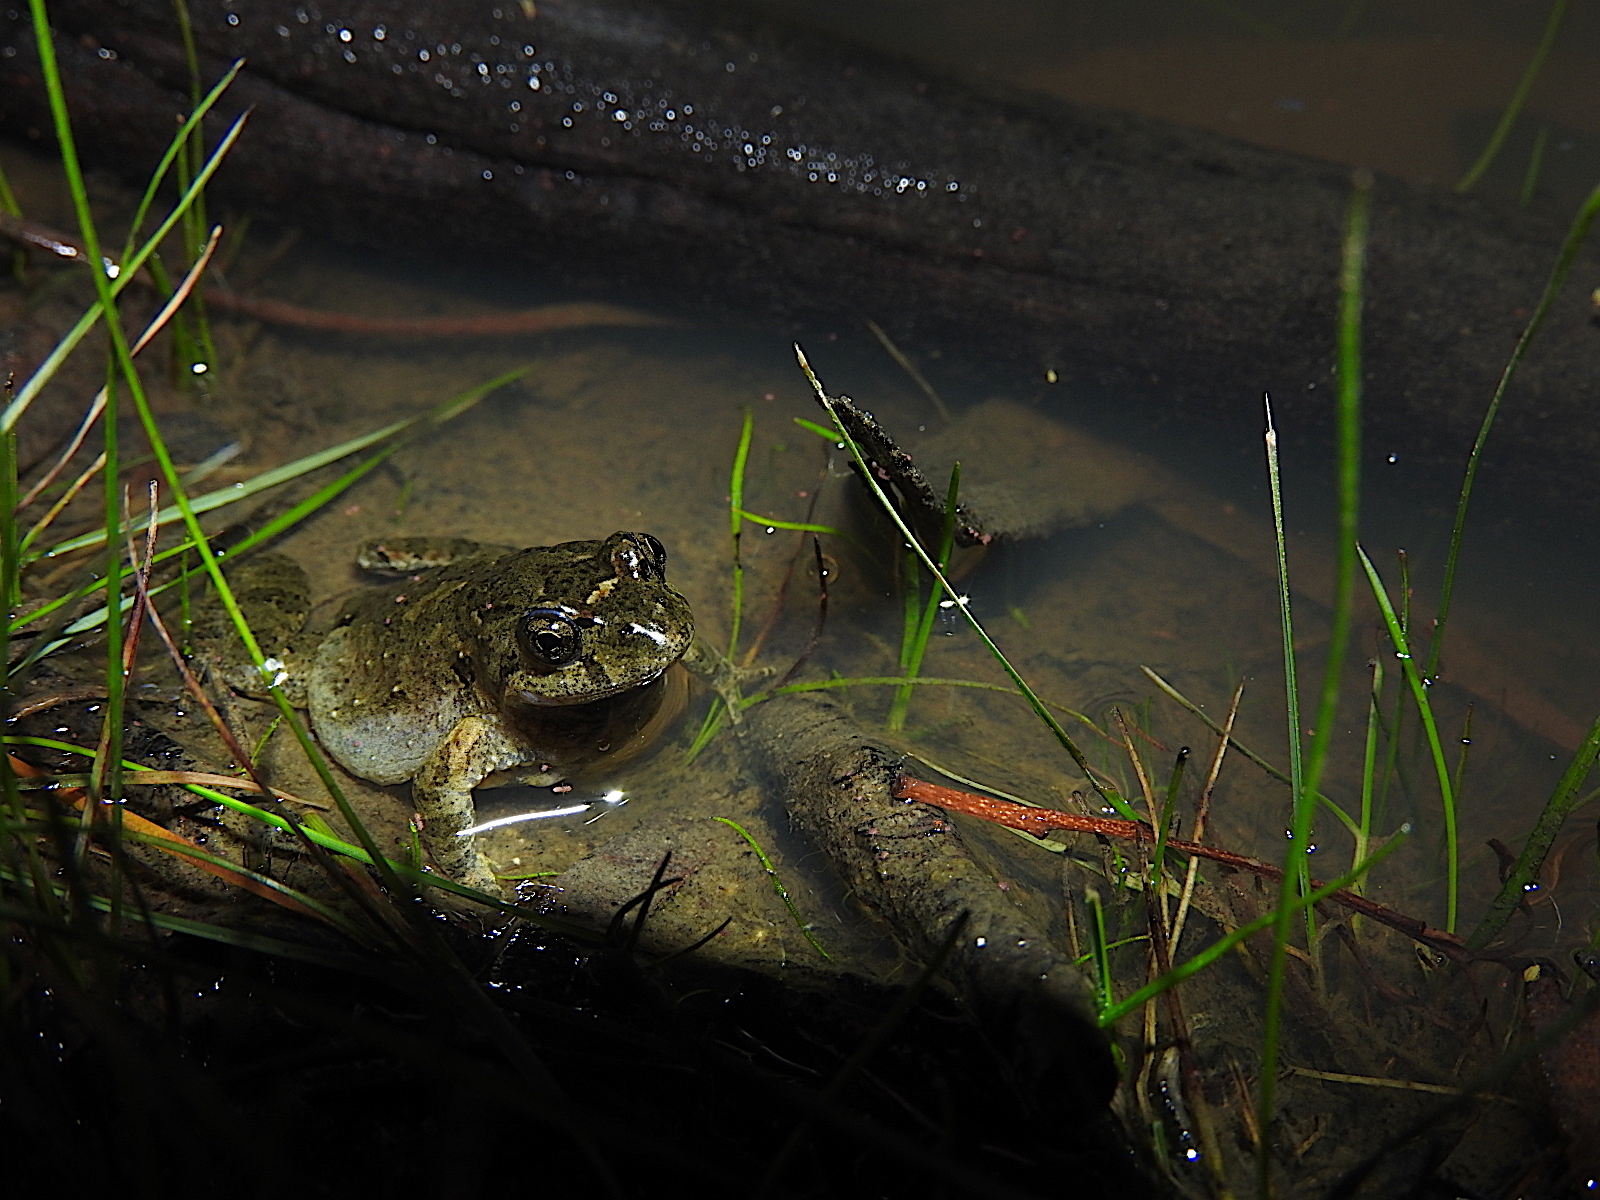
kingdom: Animalia
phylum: Chordata
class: Amphibia
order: Anura
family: Myobatrachidae
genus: Crinia
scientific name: Crinia signifera
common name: Brown froglet
